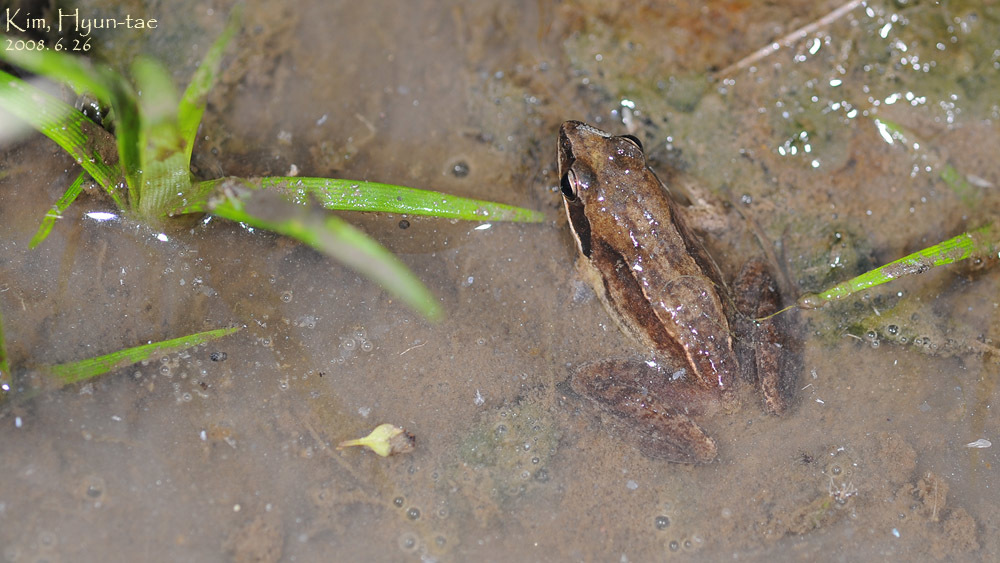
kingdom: Animalia
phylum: Chordata
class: Amphibia
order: Anura
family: Ranidae
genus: Rana
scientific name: Rana coreana
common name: Korean brown frog
